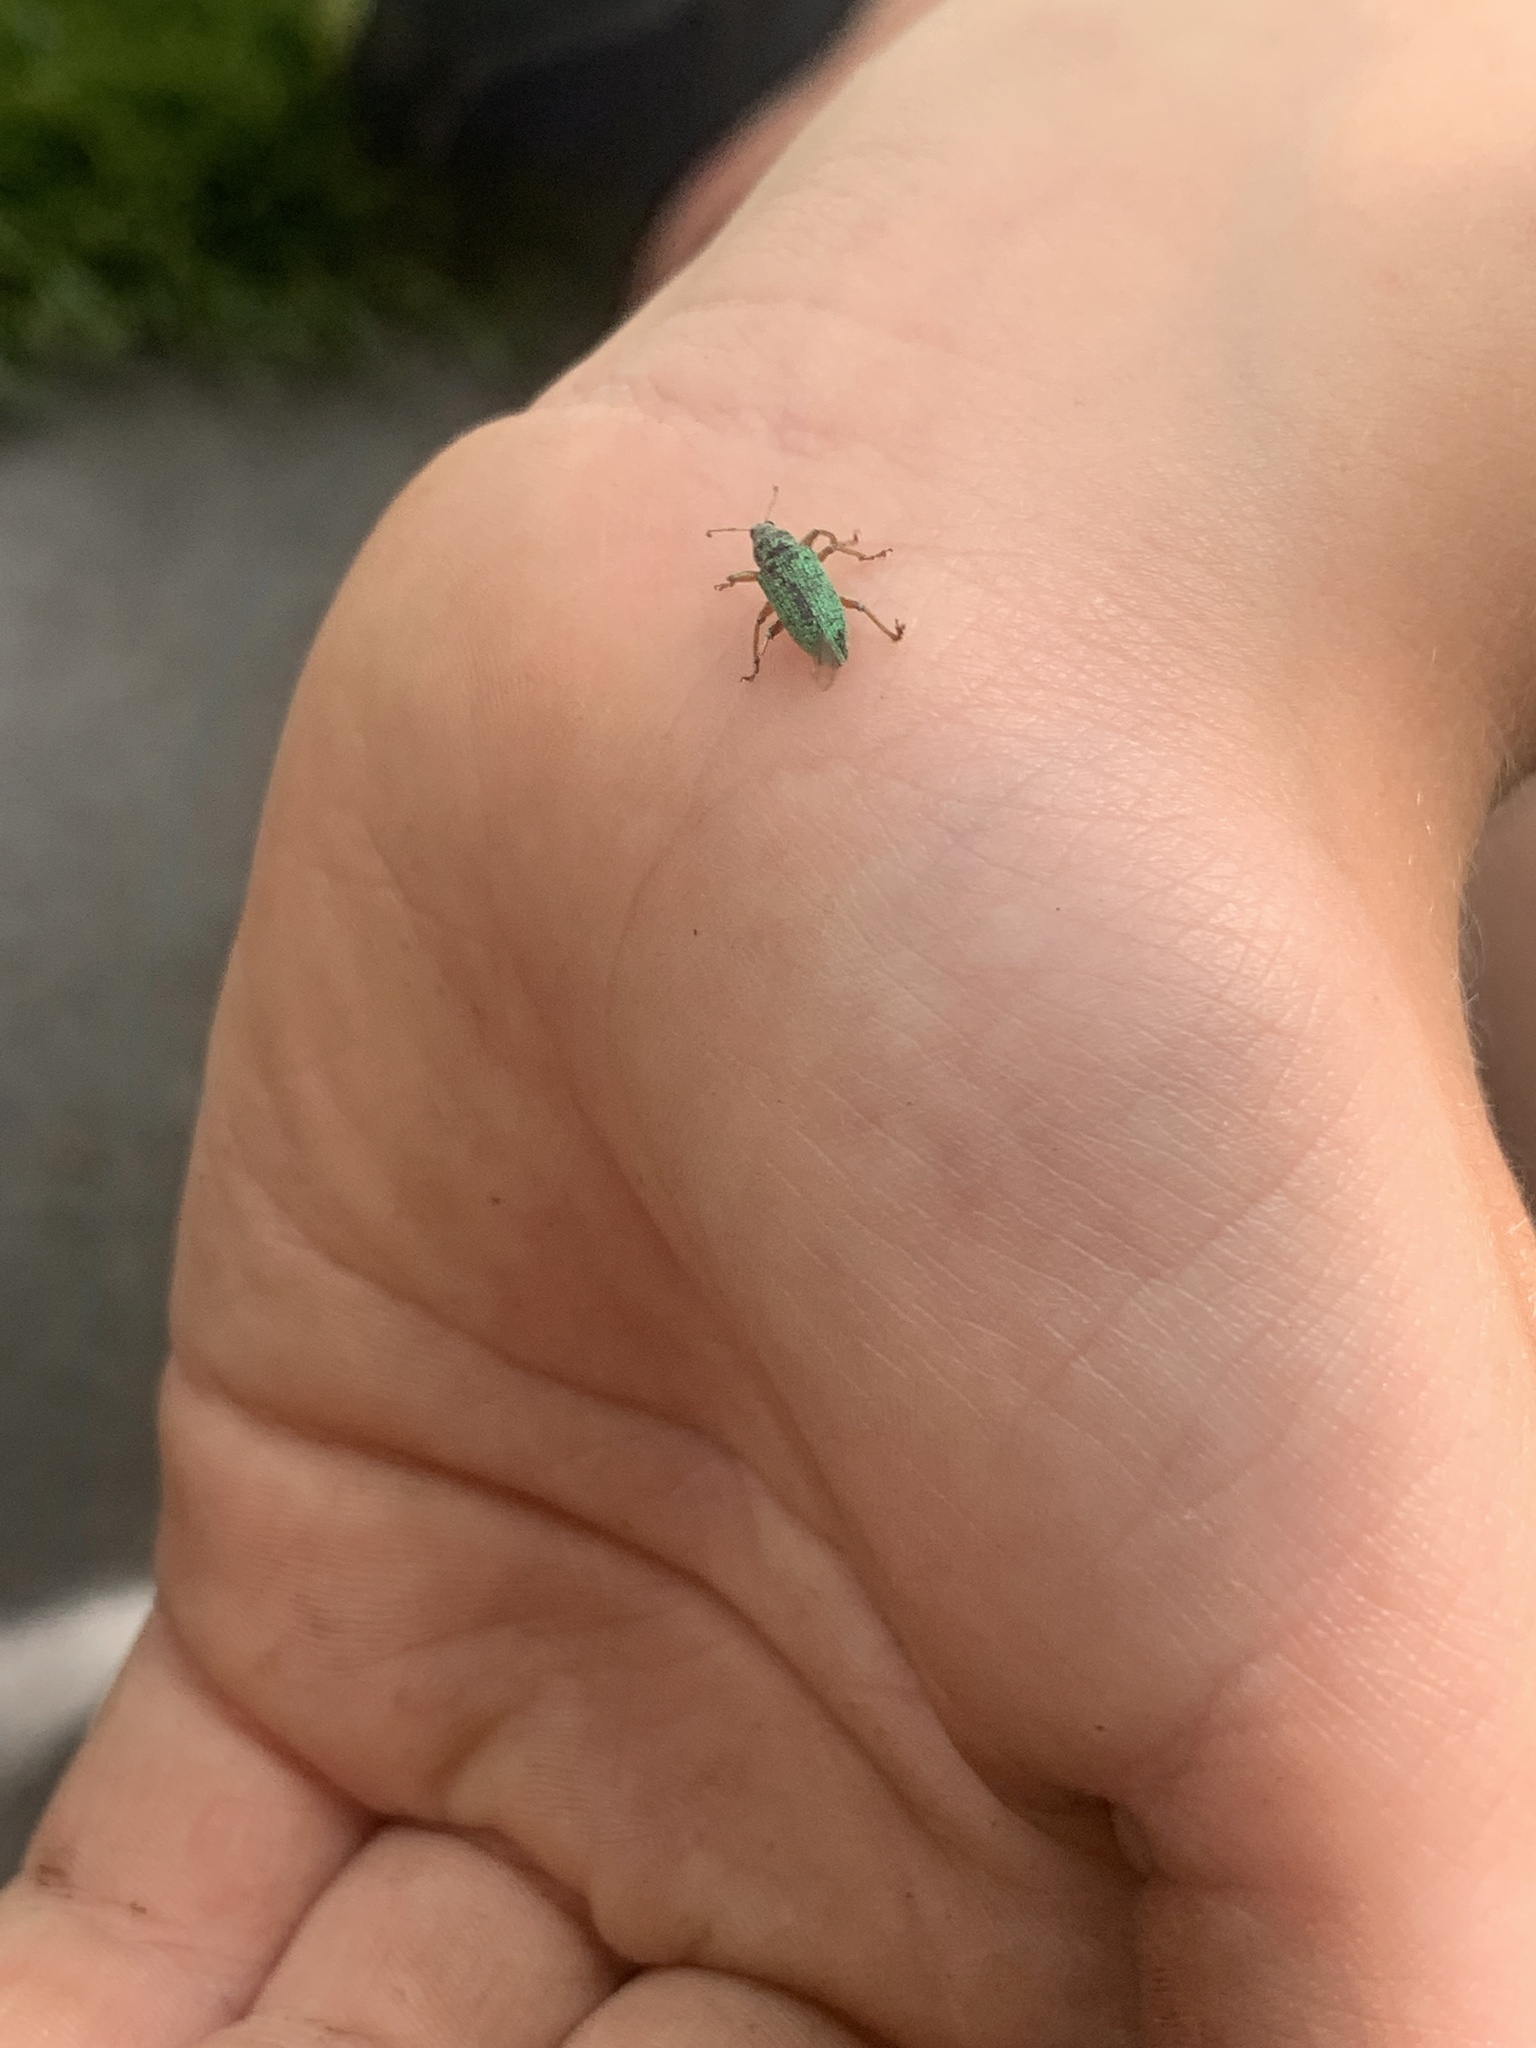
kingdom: Animalia
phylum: Arthropoda
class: Insecta
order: Coleoptera
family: Curculionidae
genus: Polydrusus
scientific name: Polydrusus formosus
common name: Weevil
